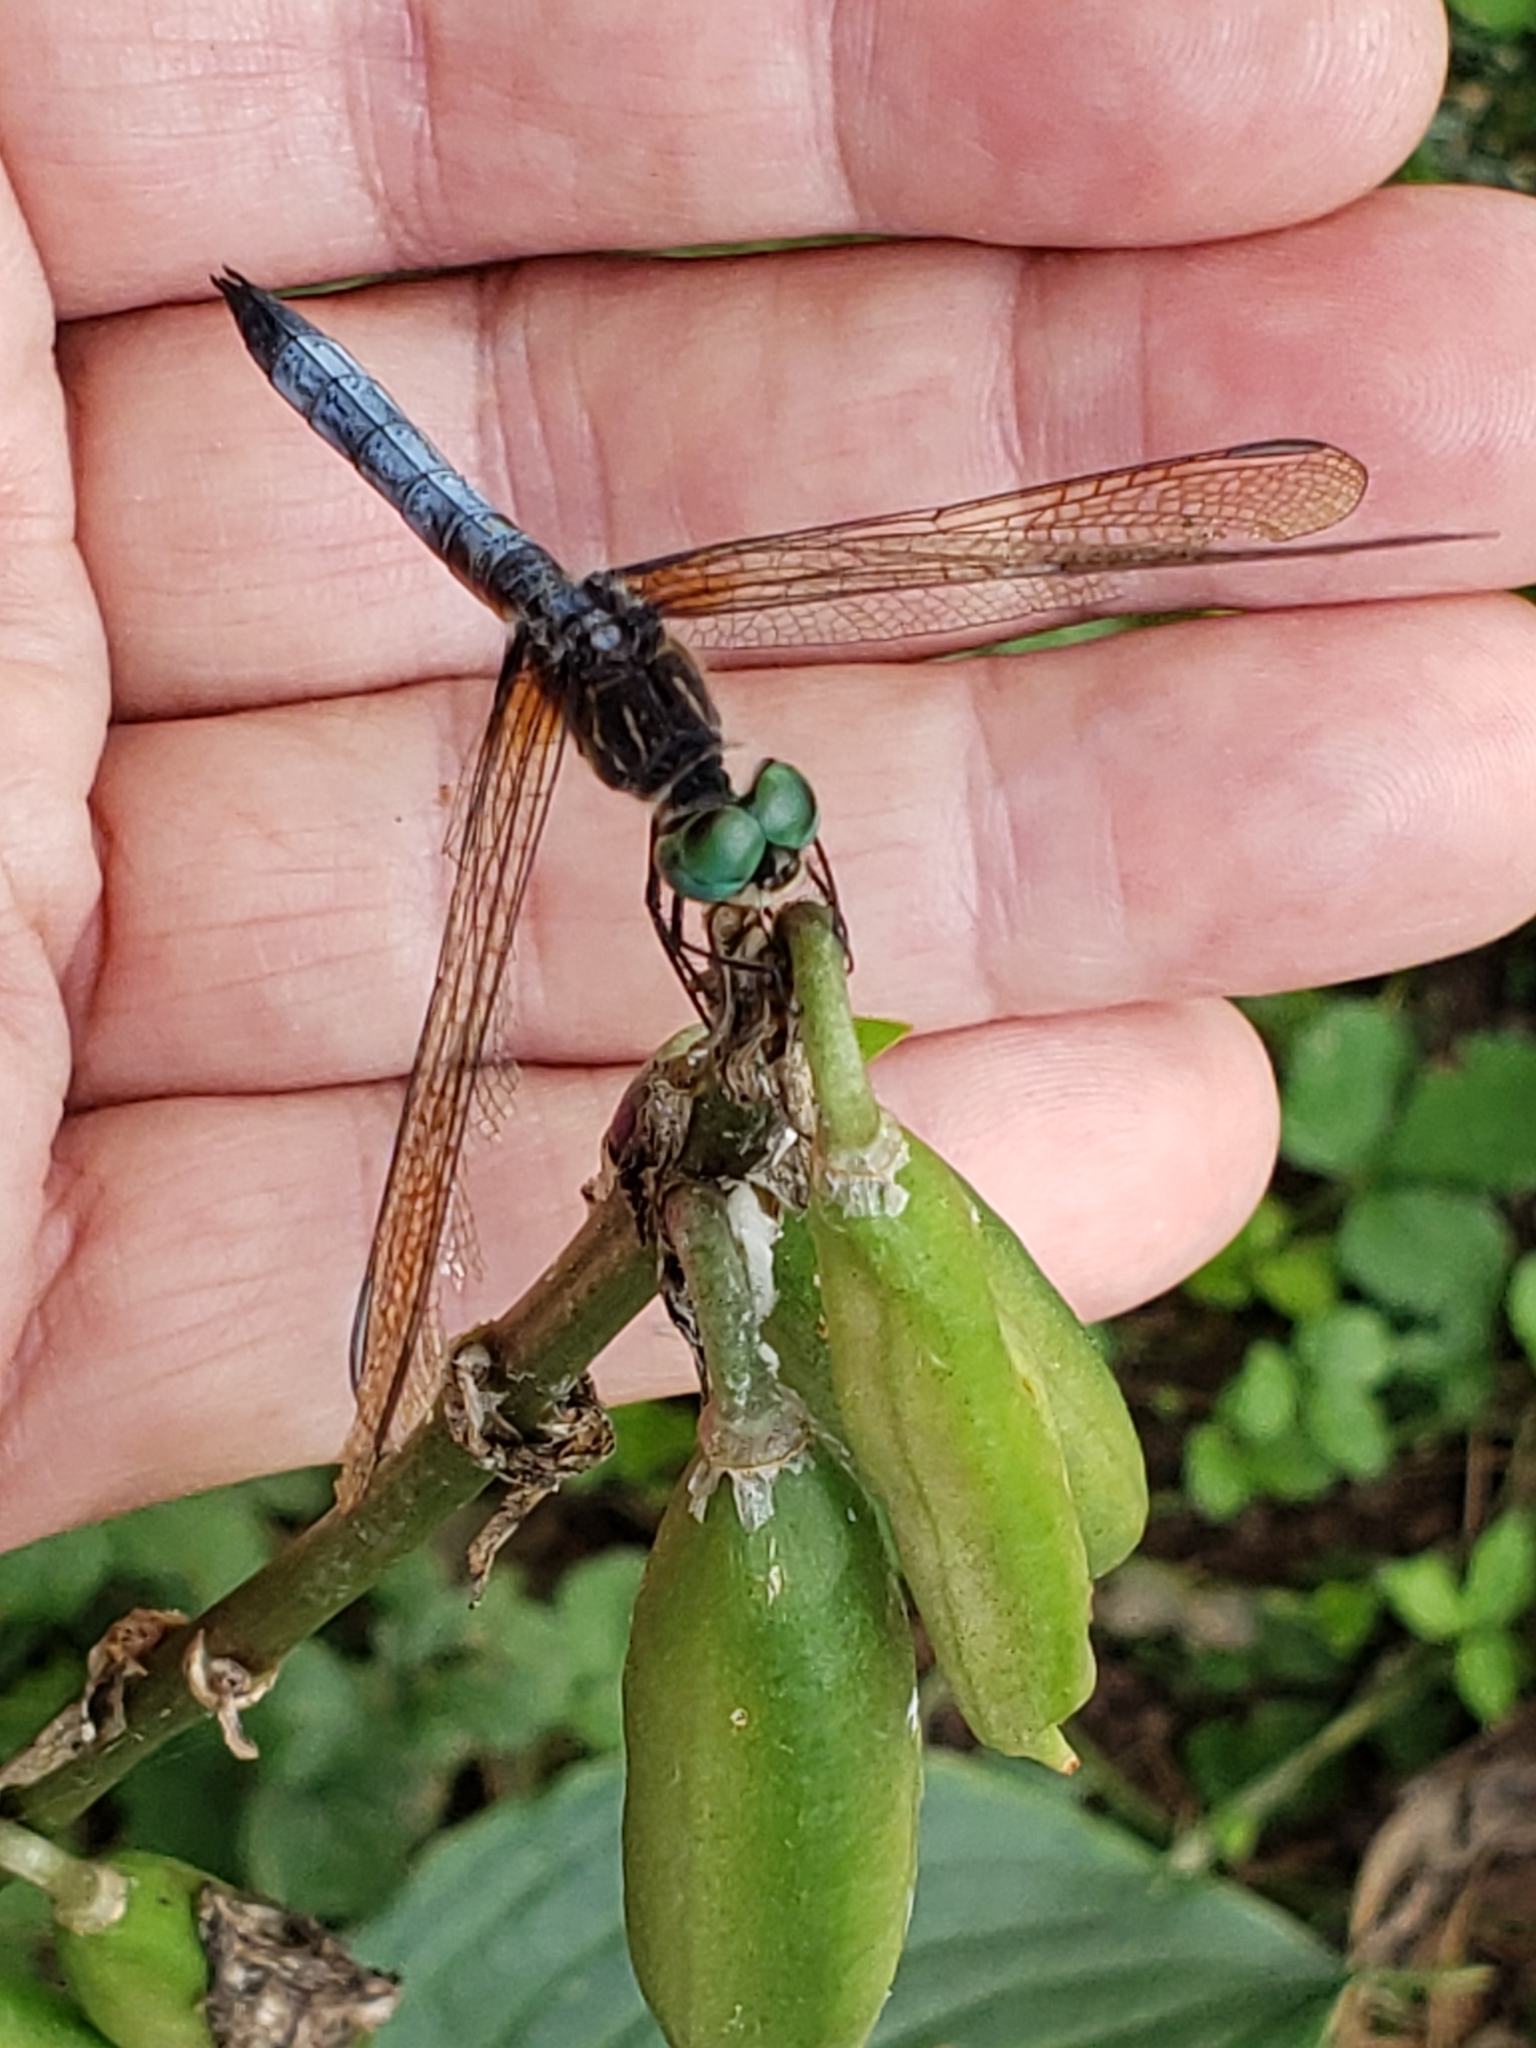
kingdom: Animalia
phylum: Arthropoda
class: Insecta
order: Odonata
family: Libellulidae
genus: Pachydiplax
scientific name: Pachydiplax longipennis
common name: Blue dasher
